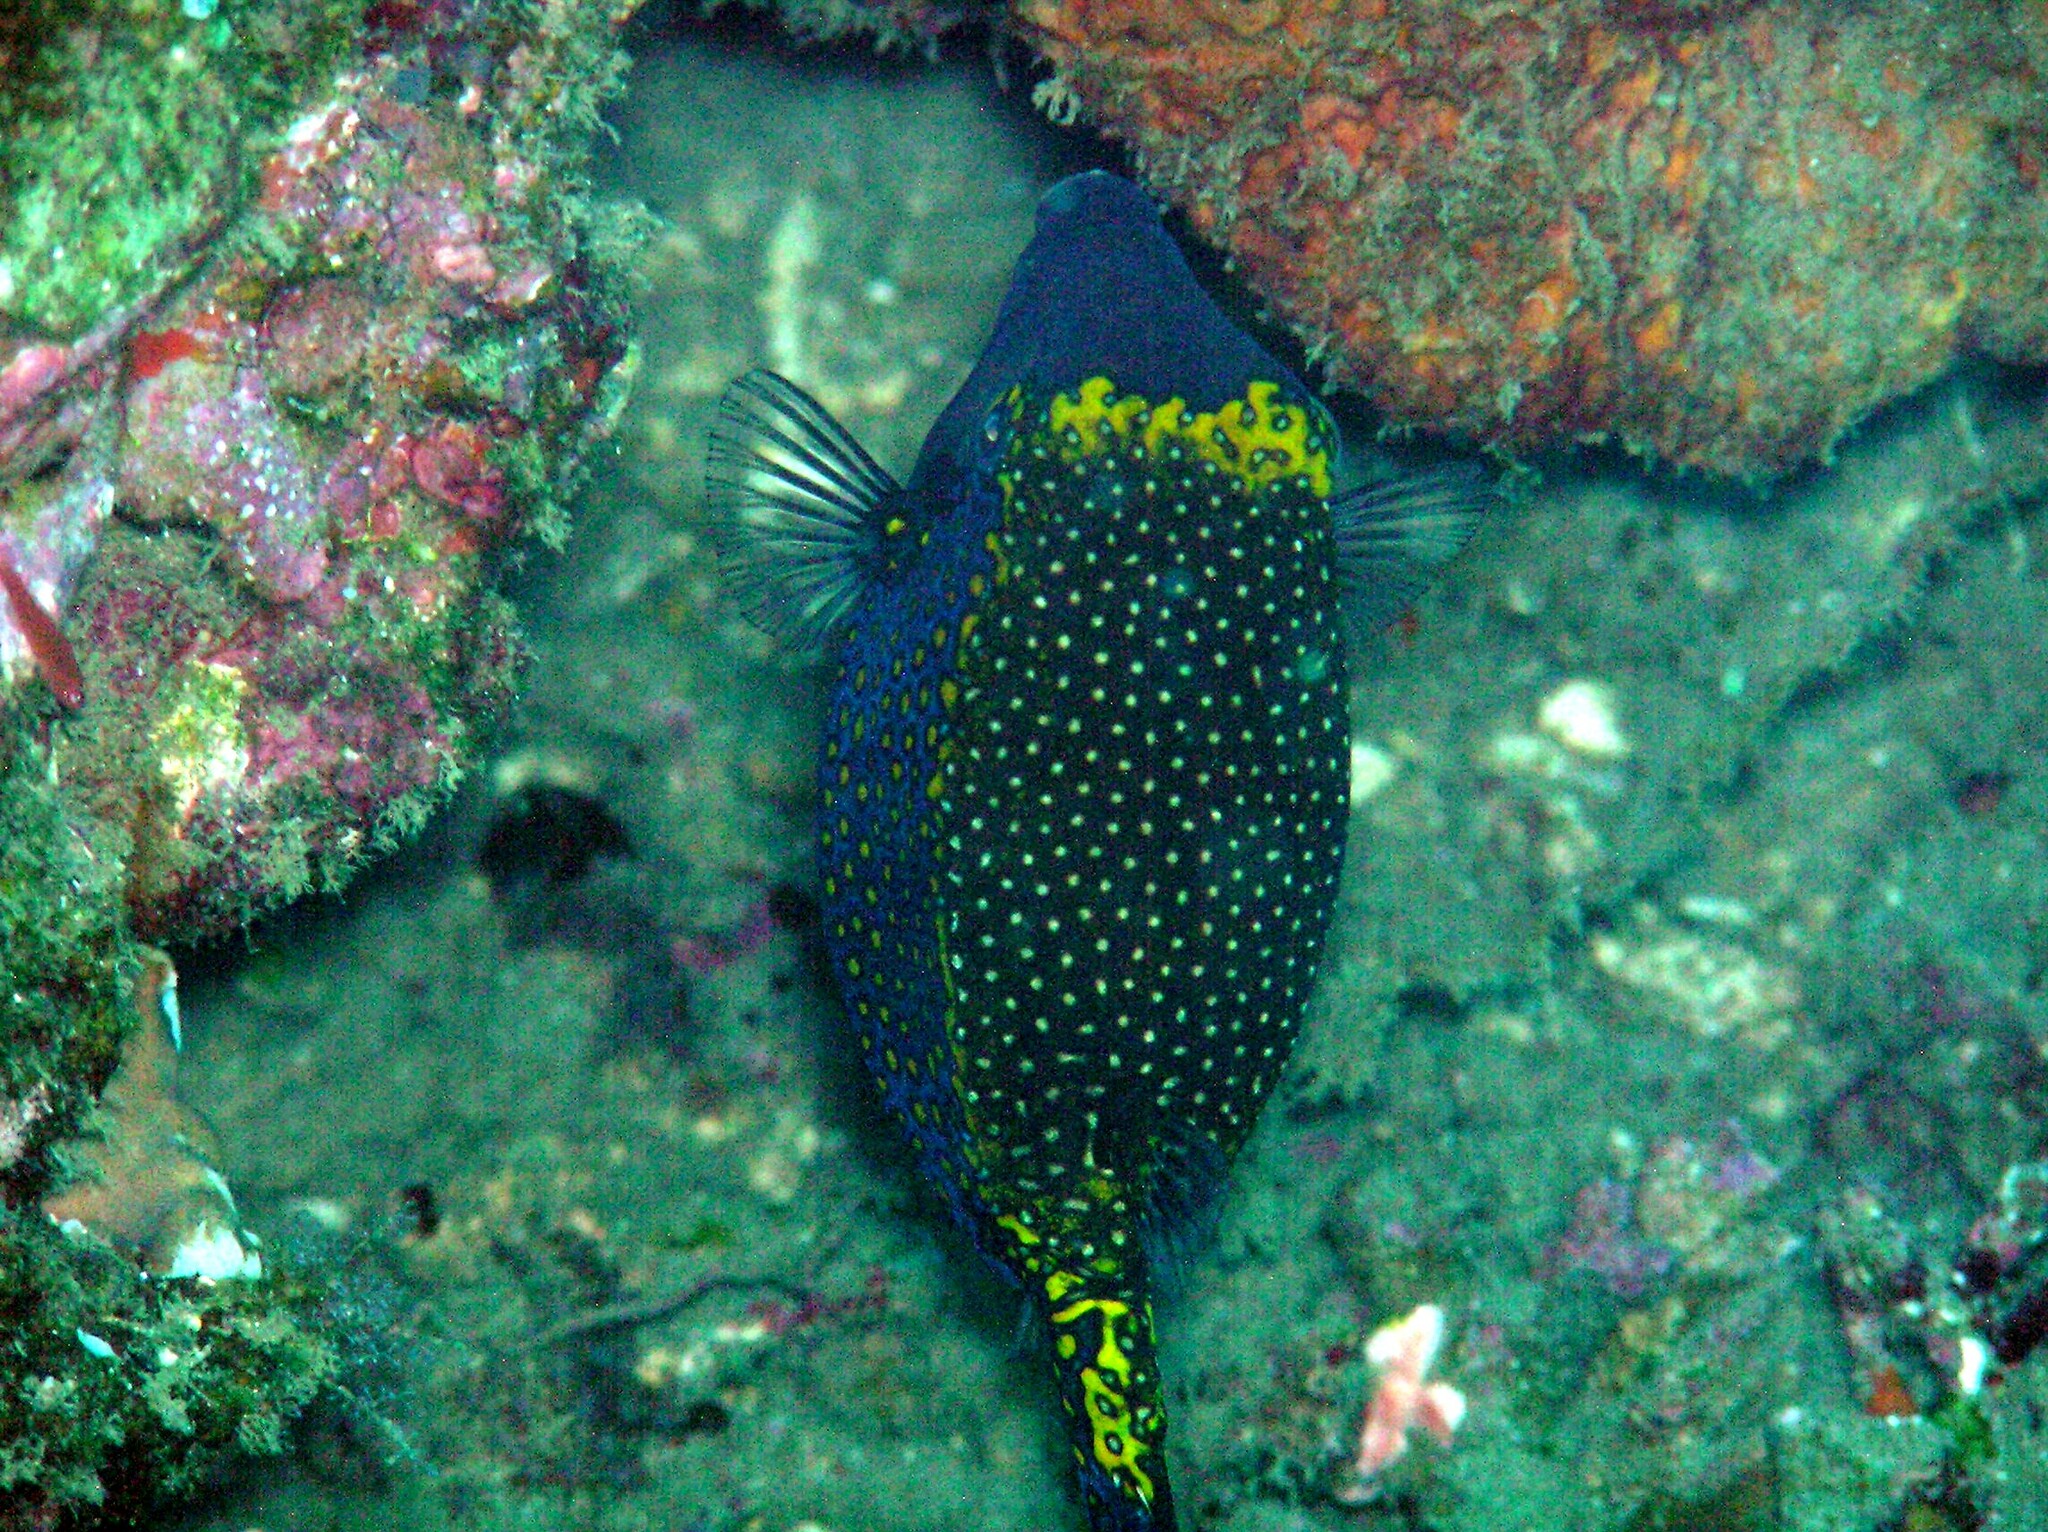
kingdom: Animalia
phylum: Chordata
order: Tetraodontiformes
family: Ostraciidae
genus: Ostracion
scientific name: Ostracion meleagris
